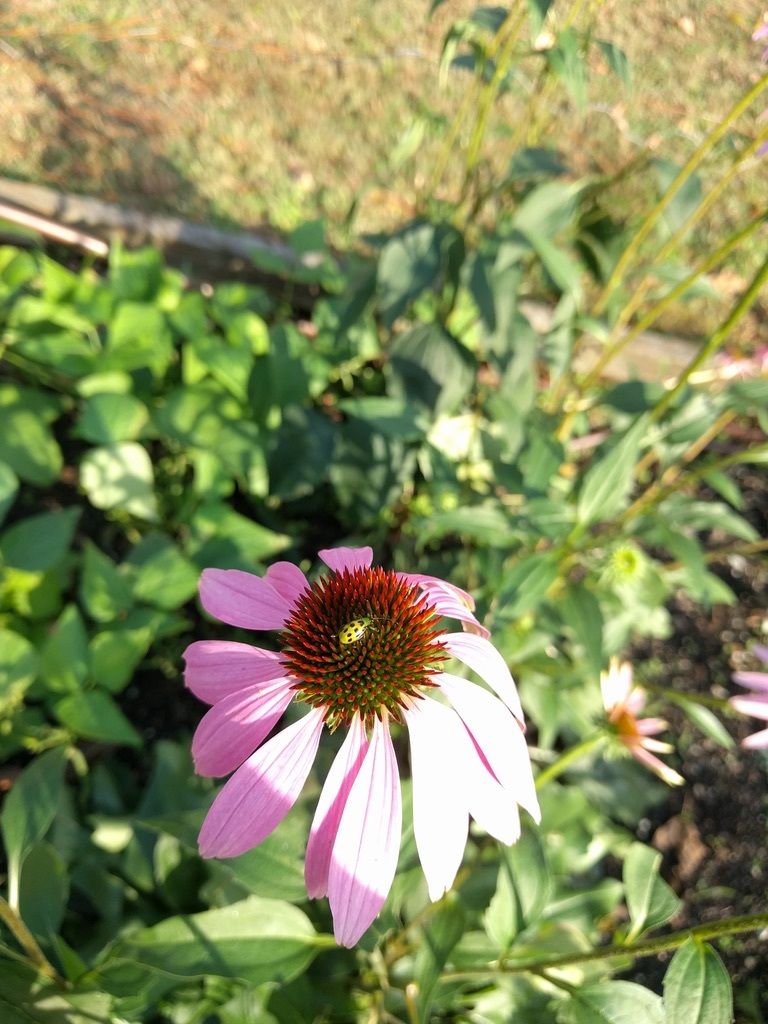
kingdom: Animalia
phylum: Arthropoda
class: Insecta
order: Coleoptera
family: Chrysomelidae
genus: Diabrotica
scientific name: Diabrotica undecimpunctata
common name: Spotted cucumber beetle
